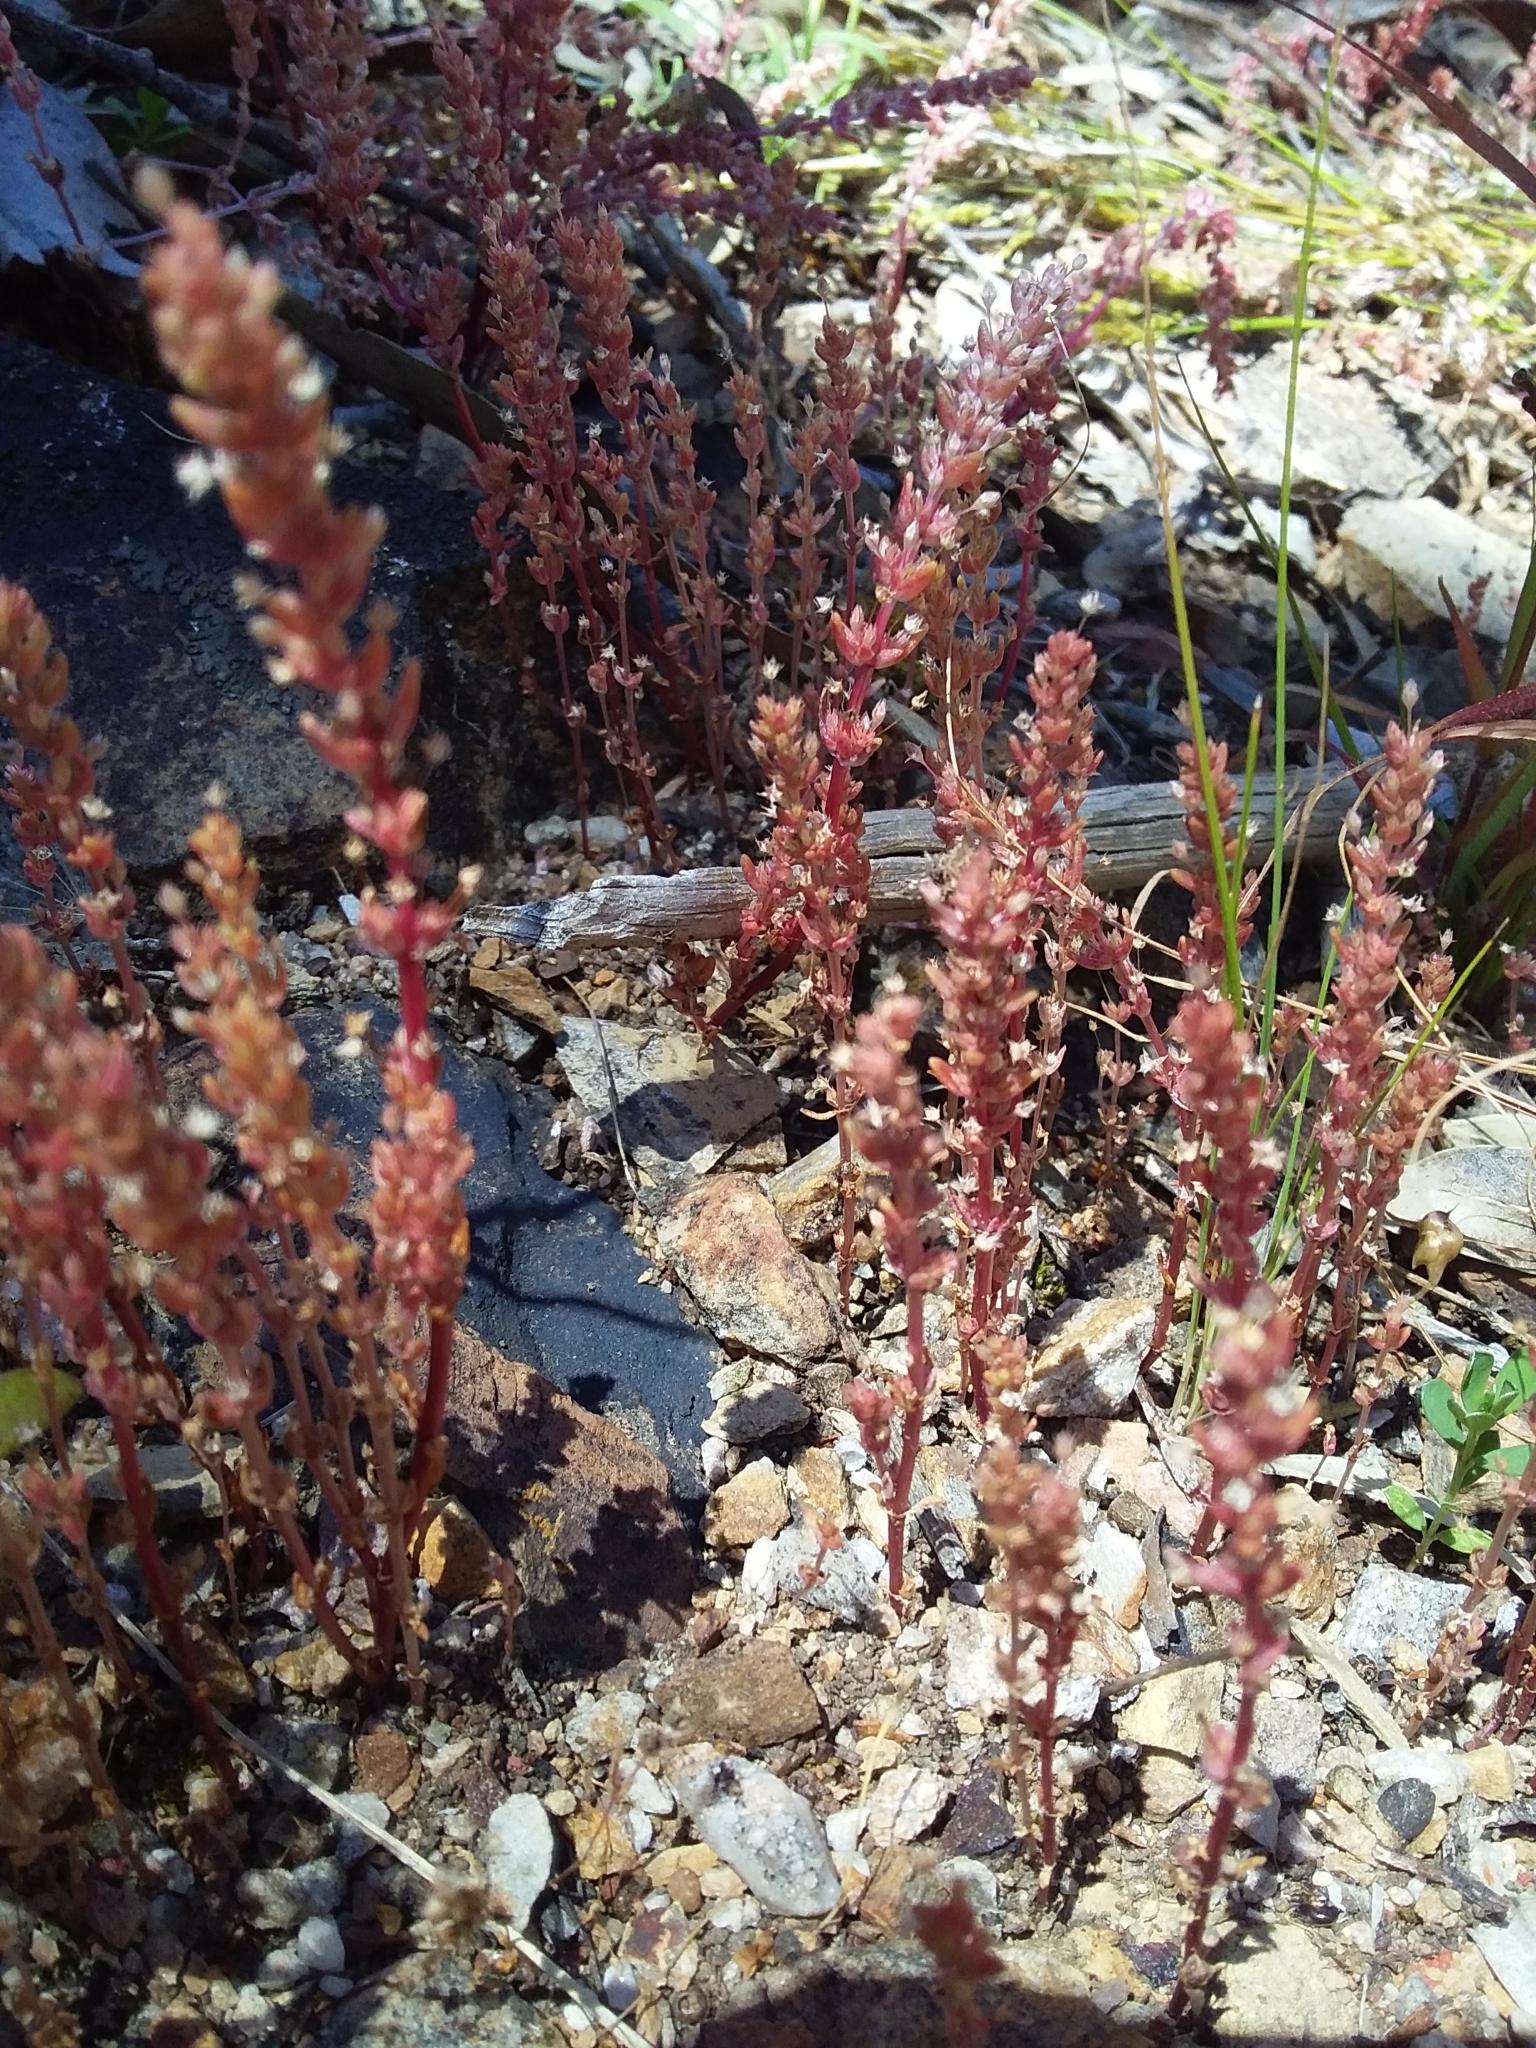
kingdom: Plantae
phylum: Tracheophyta
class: Magnoliopsida
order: Saxifragales
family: Crassulaceae
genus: Crassula
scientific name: Crassula colligata
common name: Pygmyweed
